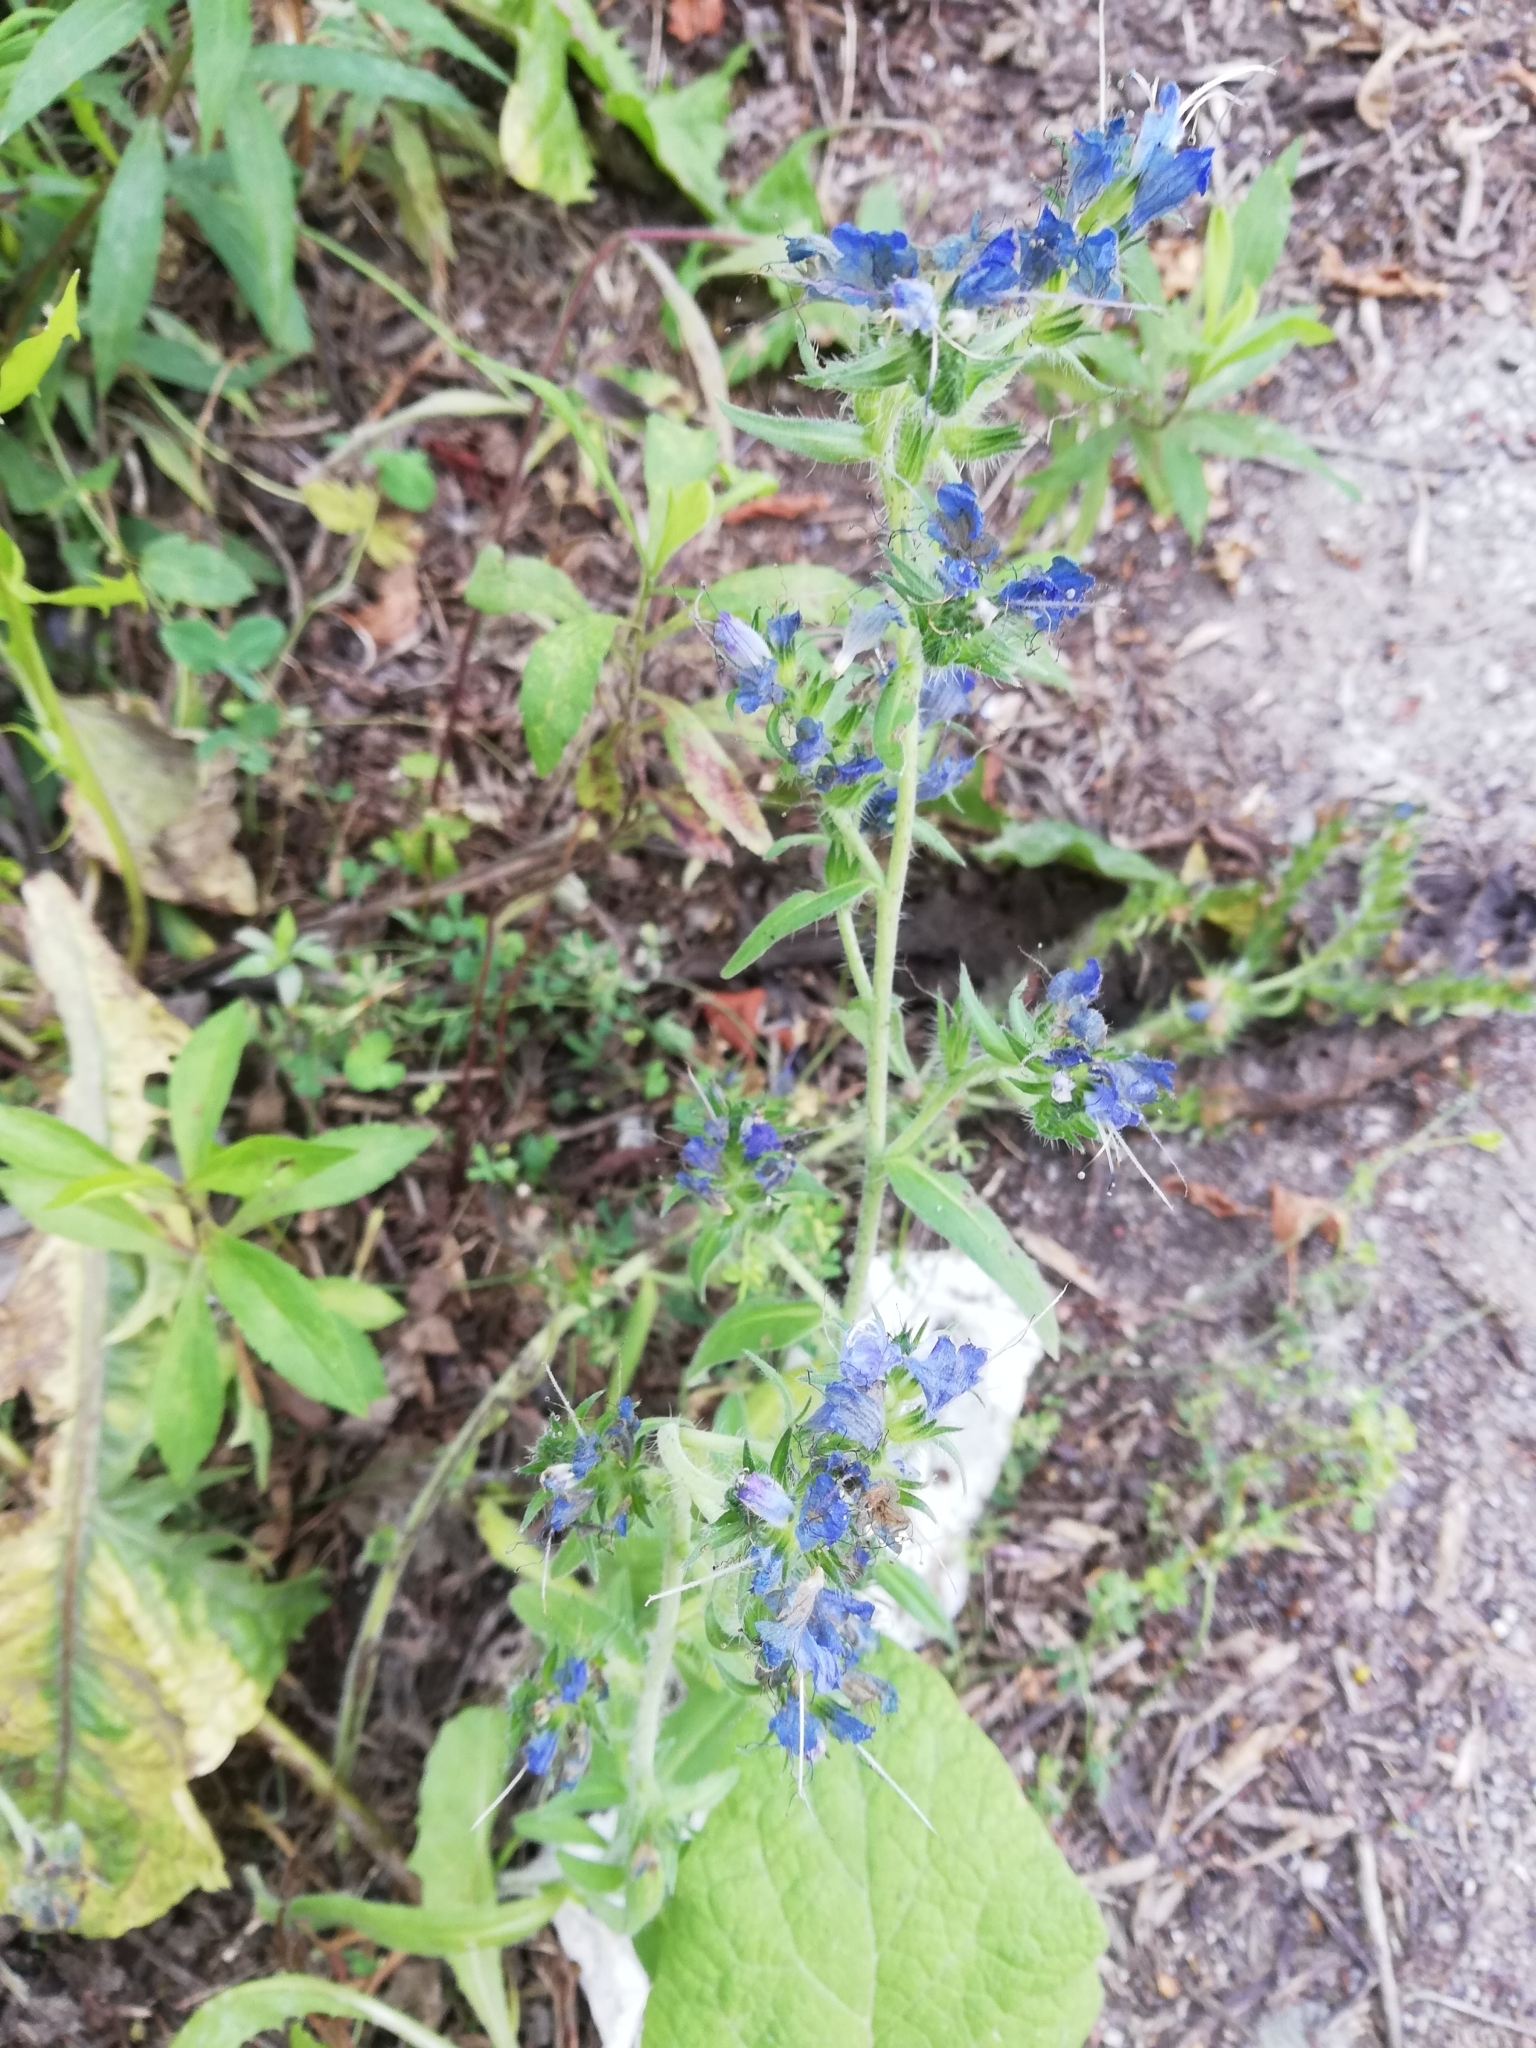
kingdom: Plantae
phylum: Tracheophyta
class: Magnoliopsida
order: Boraginales
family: Boraginaceae
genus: Echium
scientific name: Echium vulgare
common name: Common viper's bugloss
